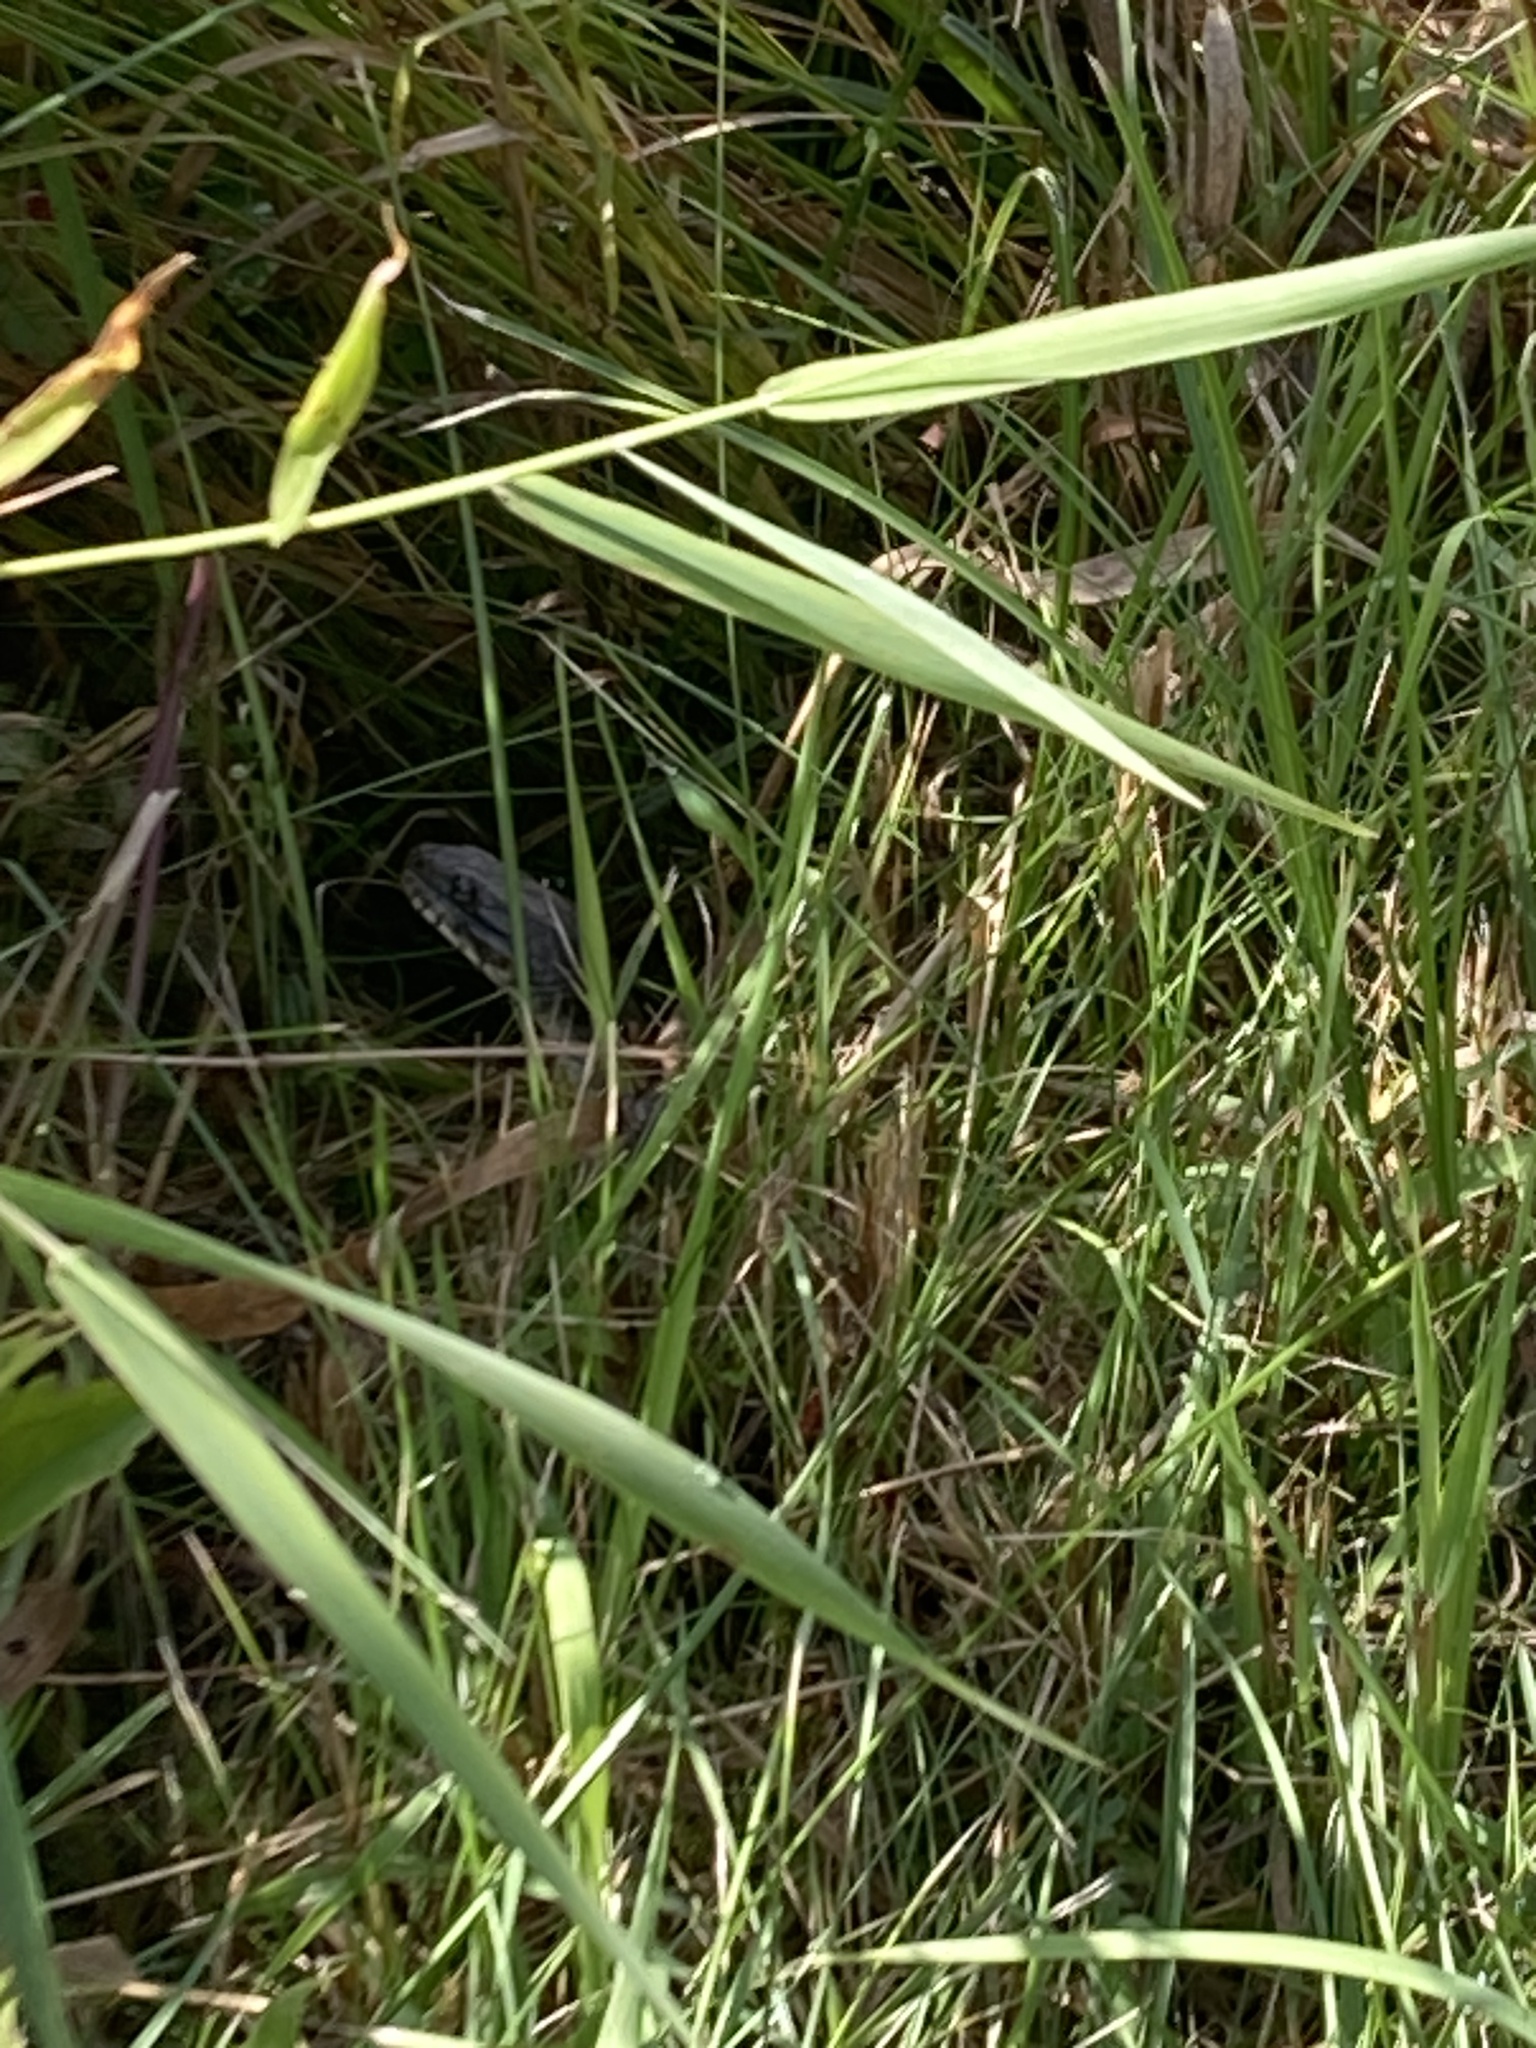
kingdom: Animalia
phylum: Chordata
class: Squamata
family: Colubridae
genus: Nerodia
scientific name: Nerodia sipedon
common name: Northern water snake
